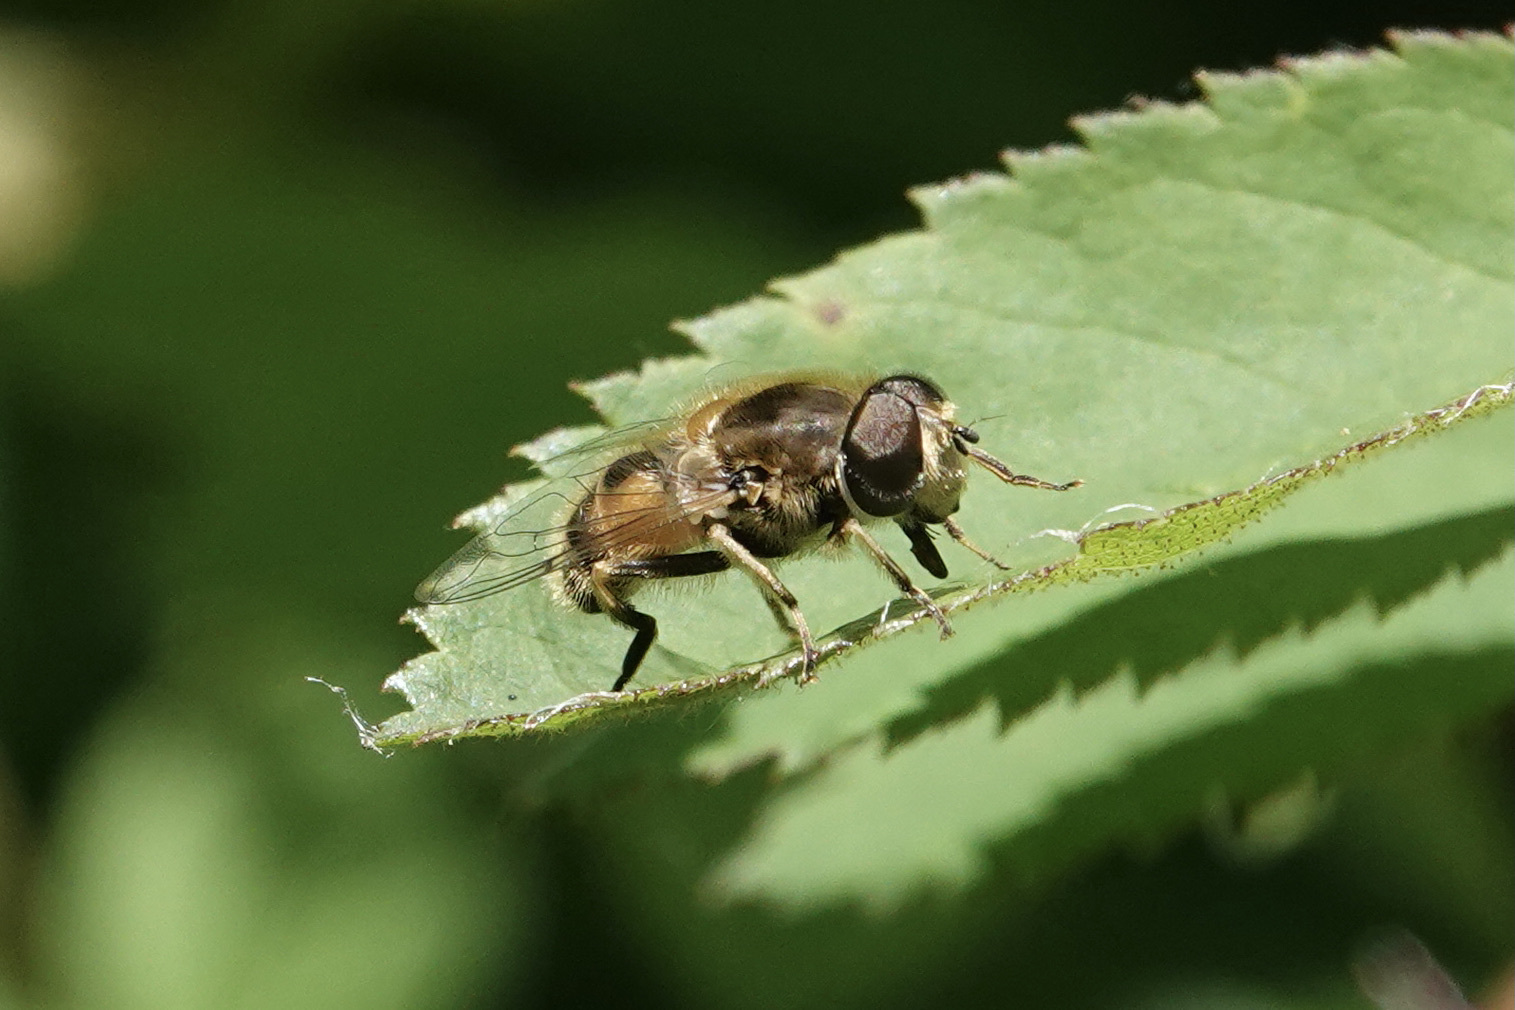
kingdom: Animalia
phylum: Arthropoda
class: Insecta
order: Diptera
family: Syrphidae
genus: Eristalis
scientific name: Eristalis arbustorum
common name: Hover fly
